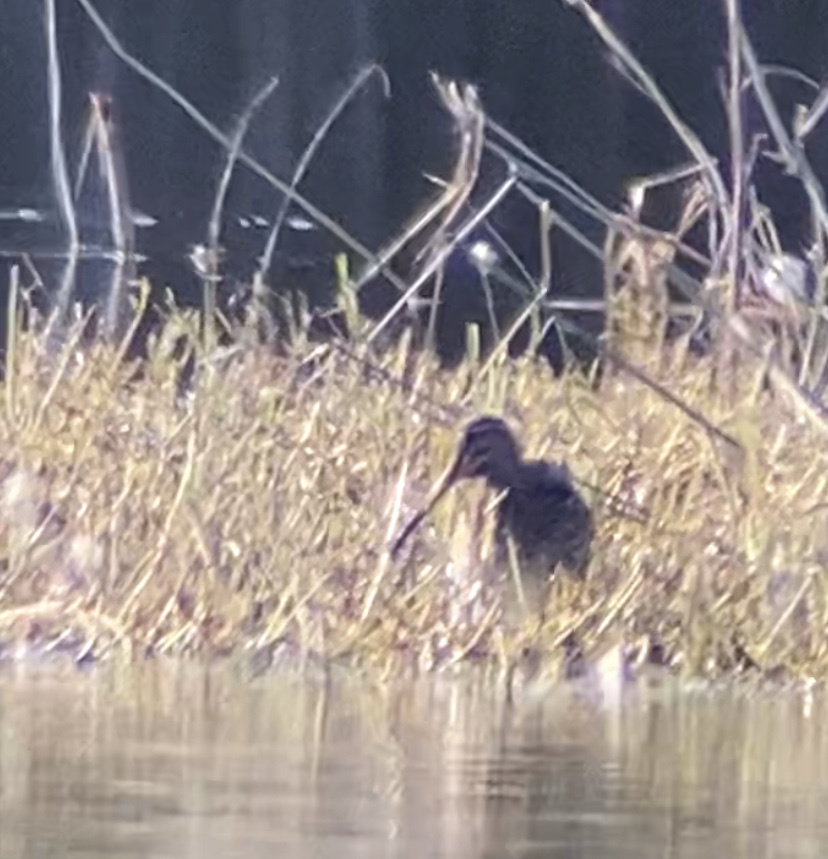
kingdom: Animalia
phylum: Chordata
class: Aves
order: Charadriiformes
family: Scolopacidae
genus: Gallinago
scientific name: Gallinago gallinago
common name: Common snipe
